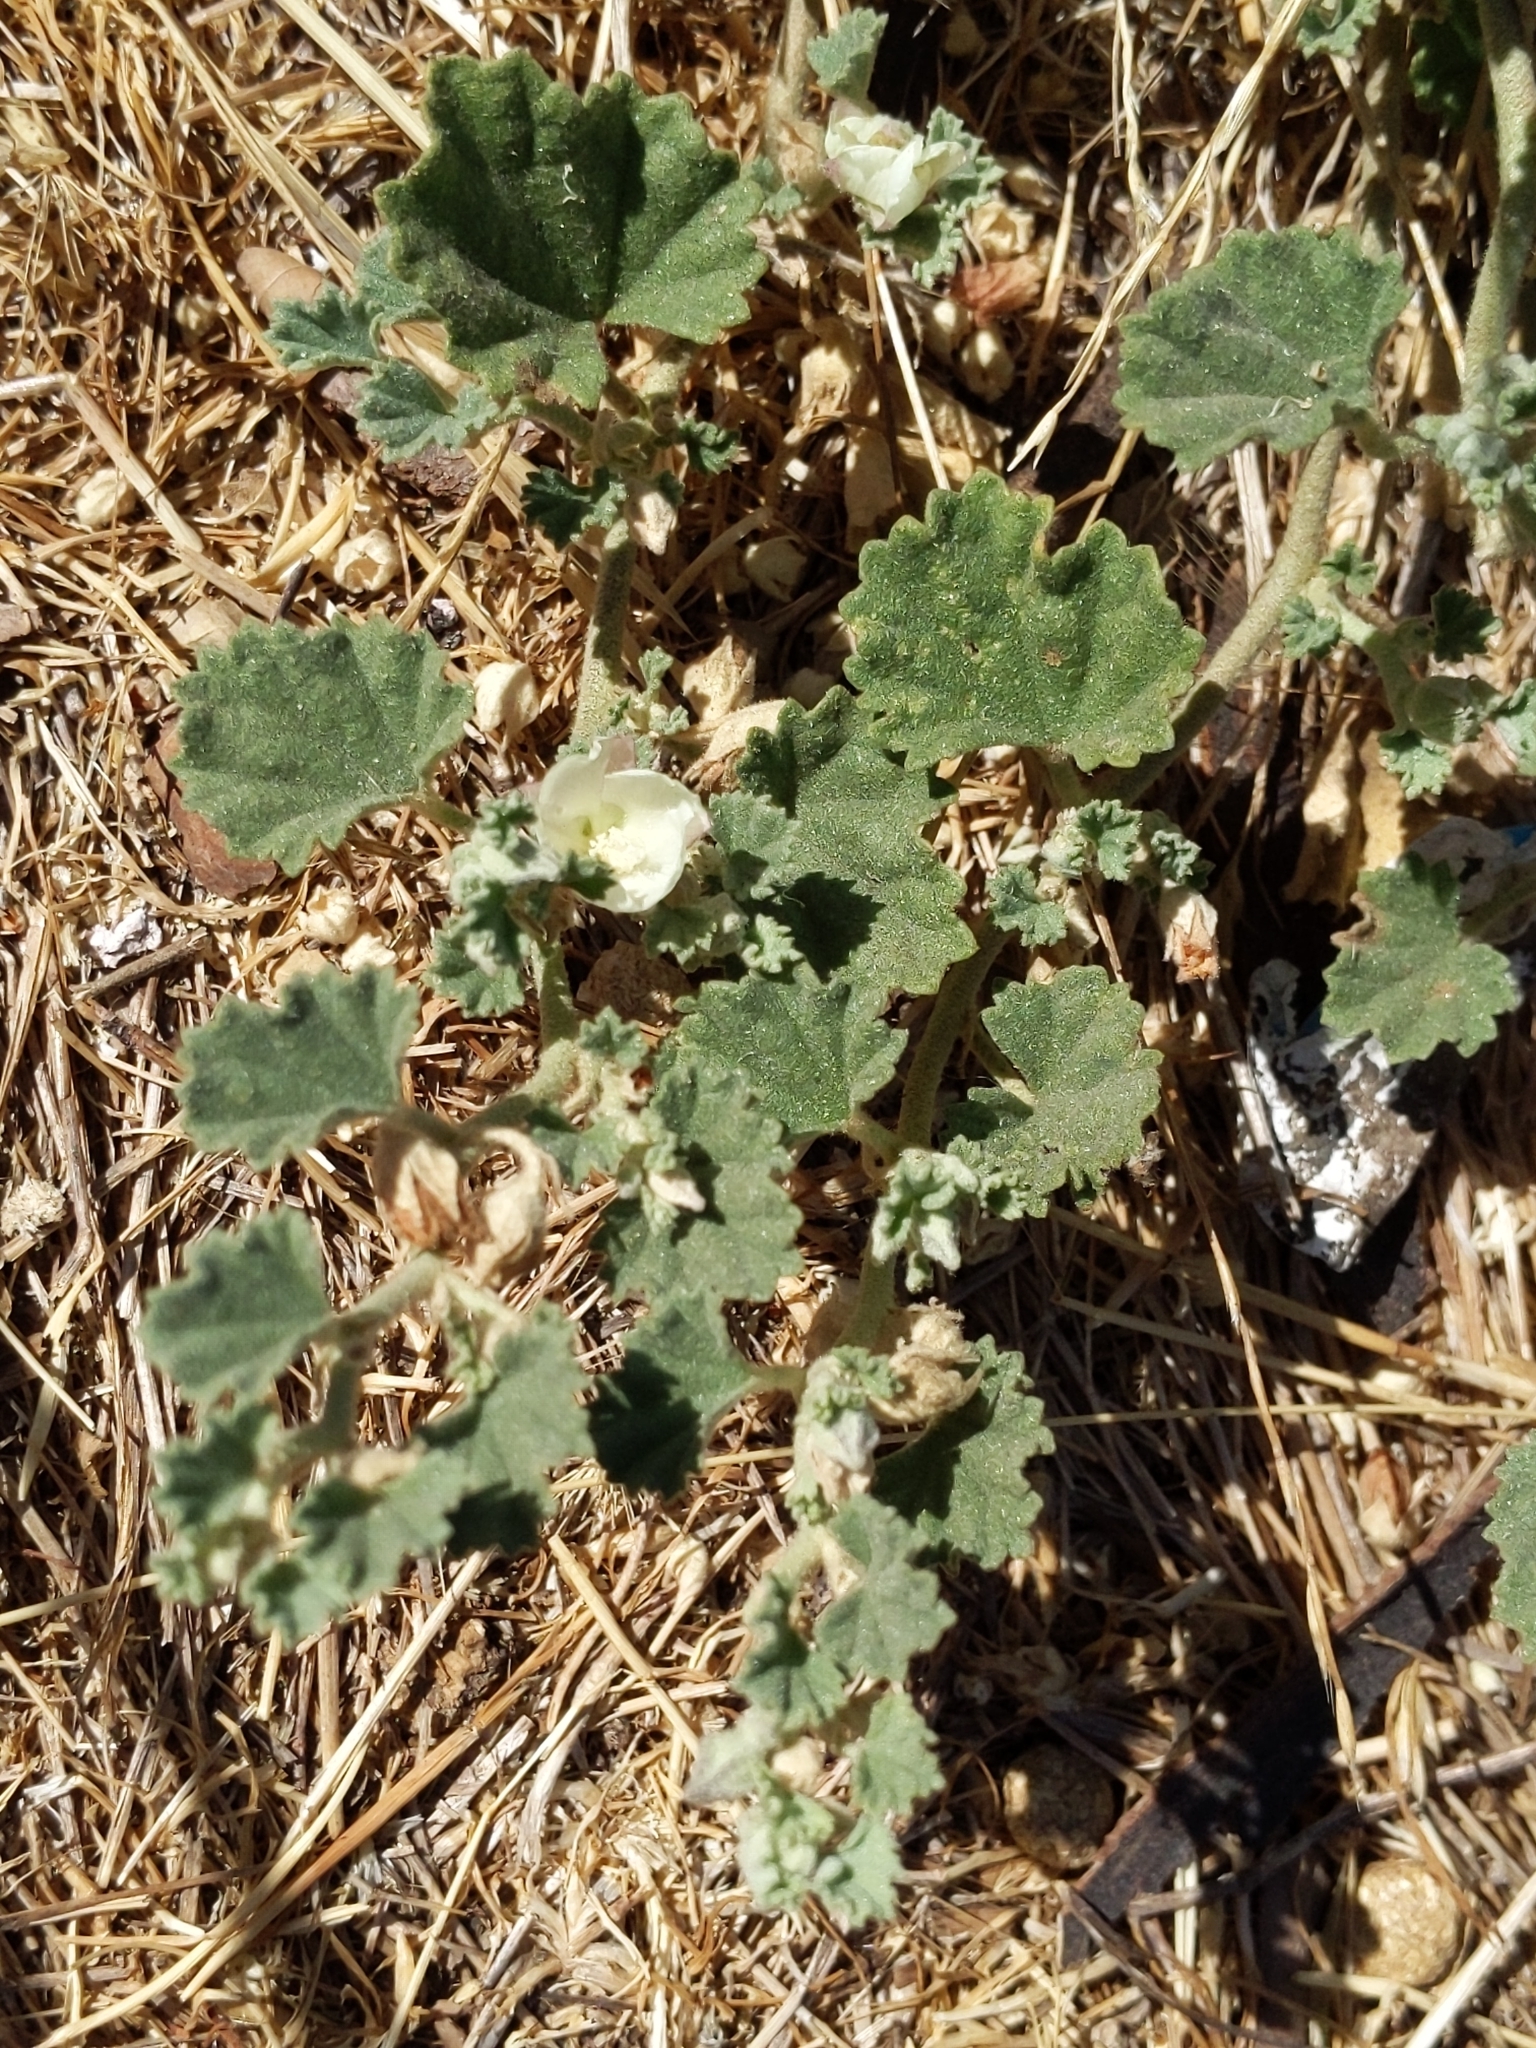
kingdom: Plantae
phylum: Tracheophyta
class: Magnoliopsida
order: Malvales
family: Malvaceae
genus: Malvella
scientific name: Malvella leprosa
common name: Alkali-mallow
